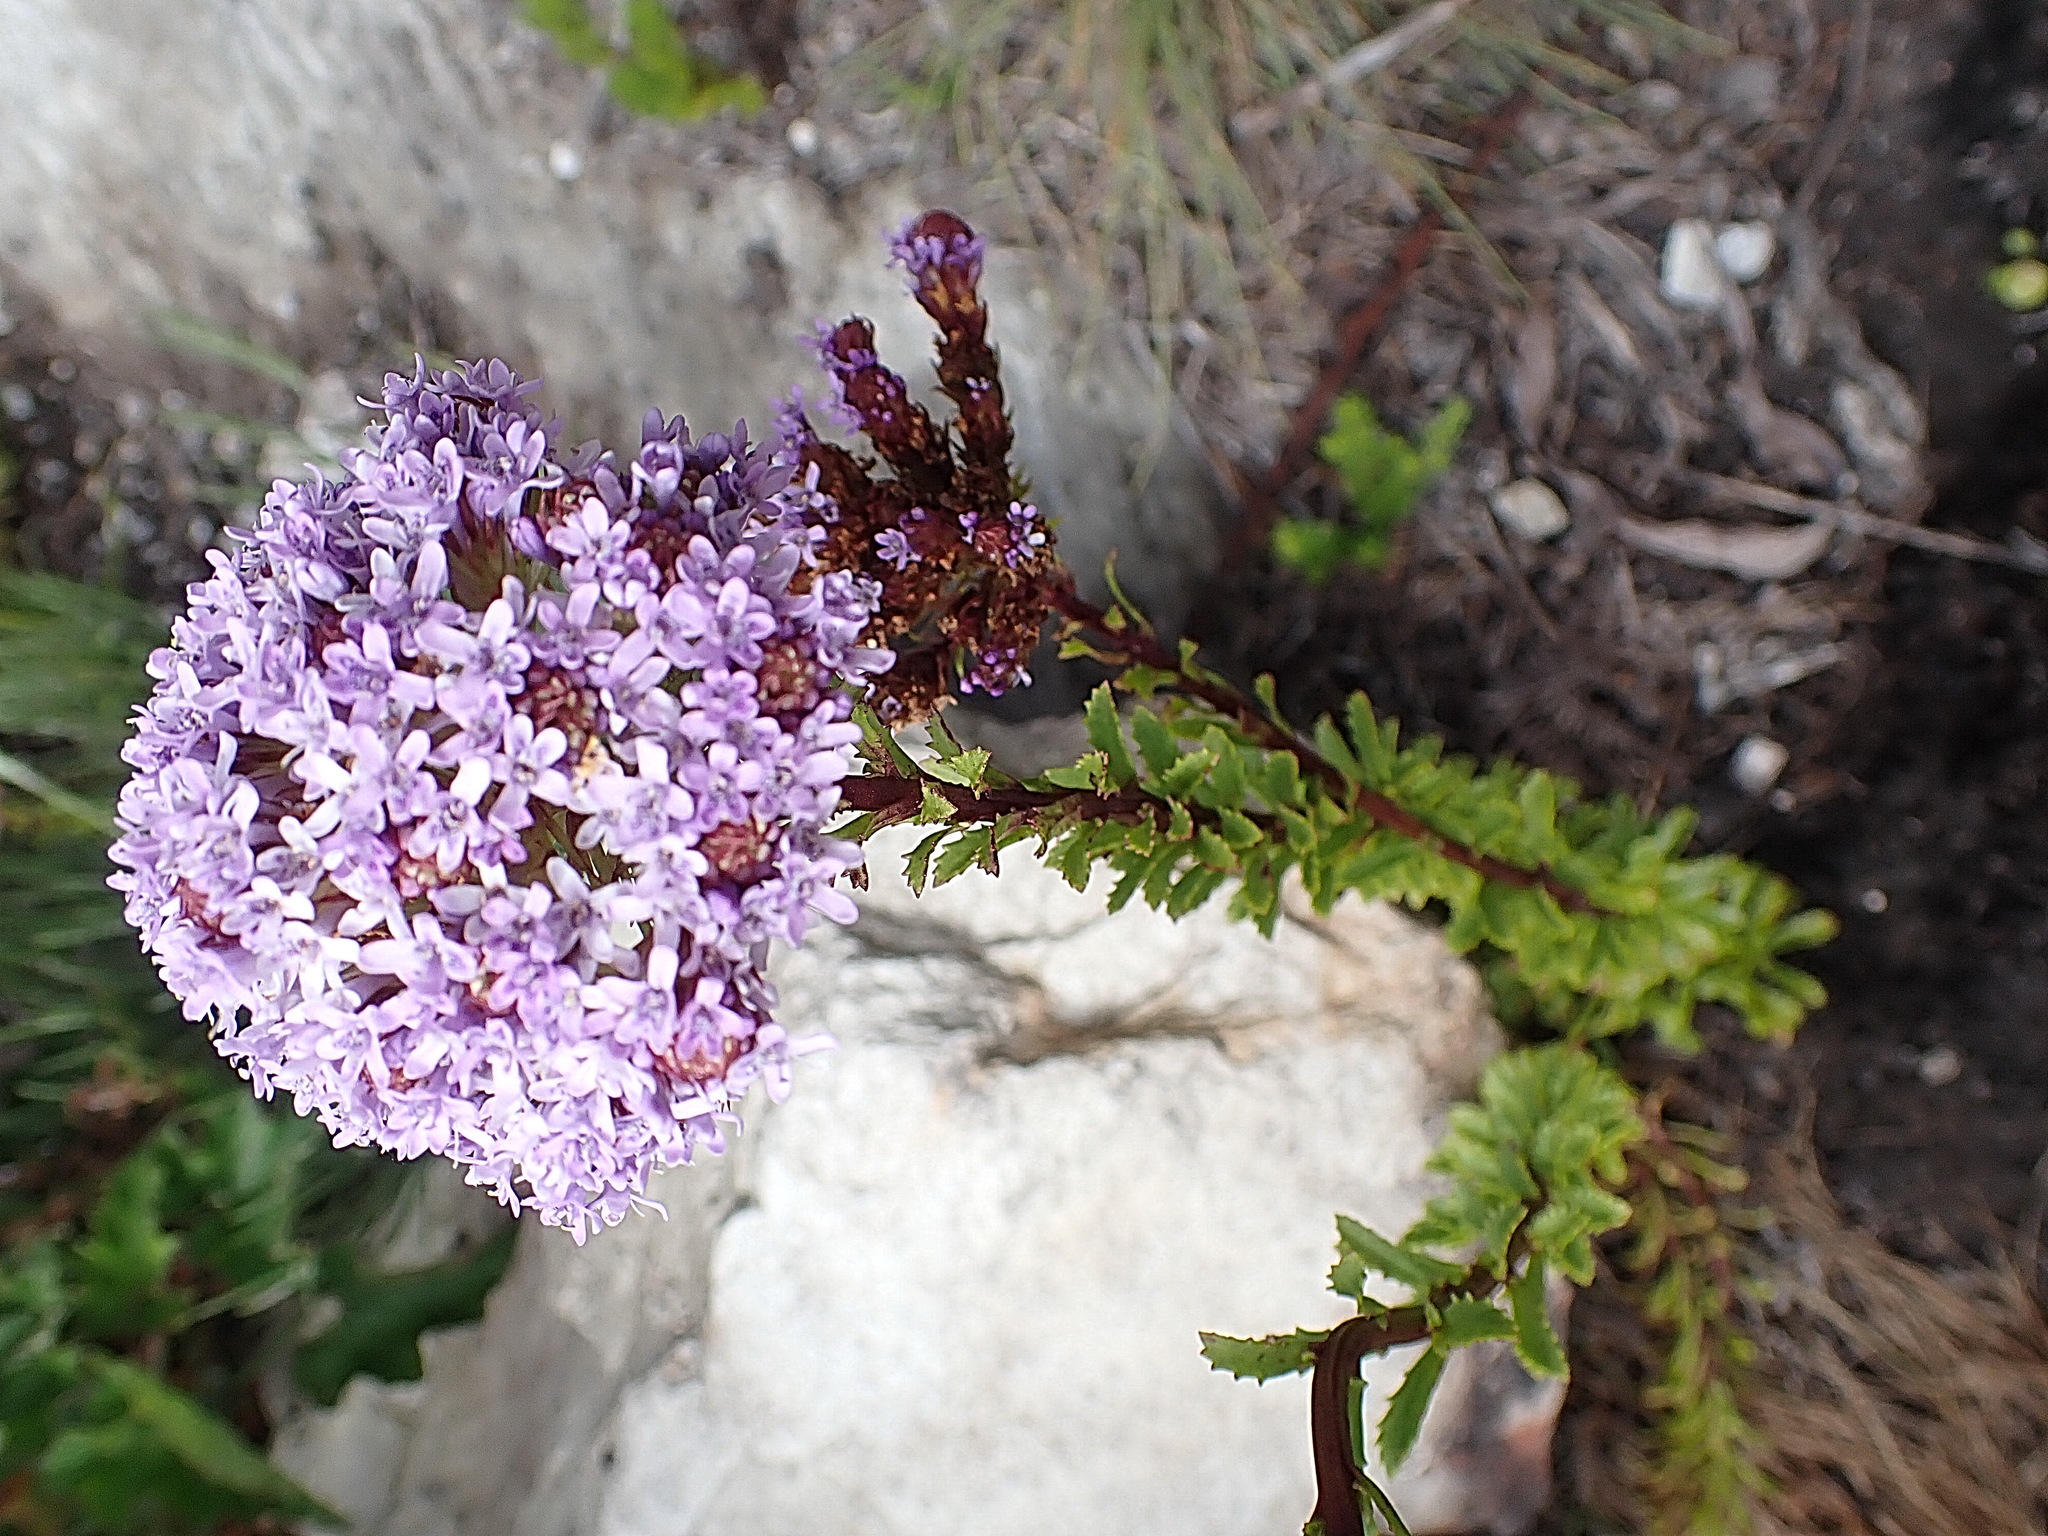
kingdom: Plantae
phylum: Tracheophyta
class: Magnoliopsida
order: Lamiales
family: Scrophulariaceae
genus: Pseudoselago
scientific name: Pseudoselago langebergensis
